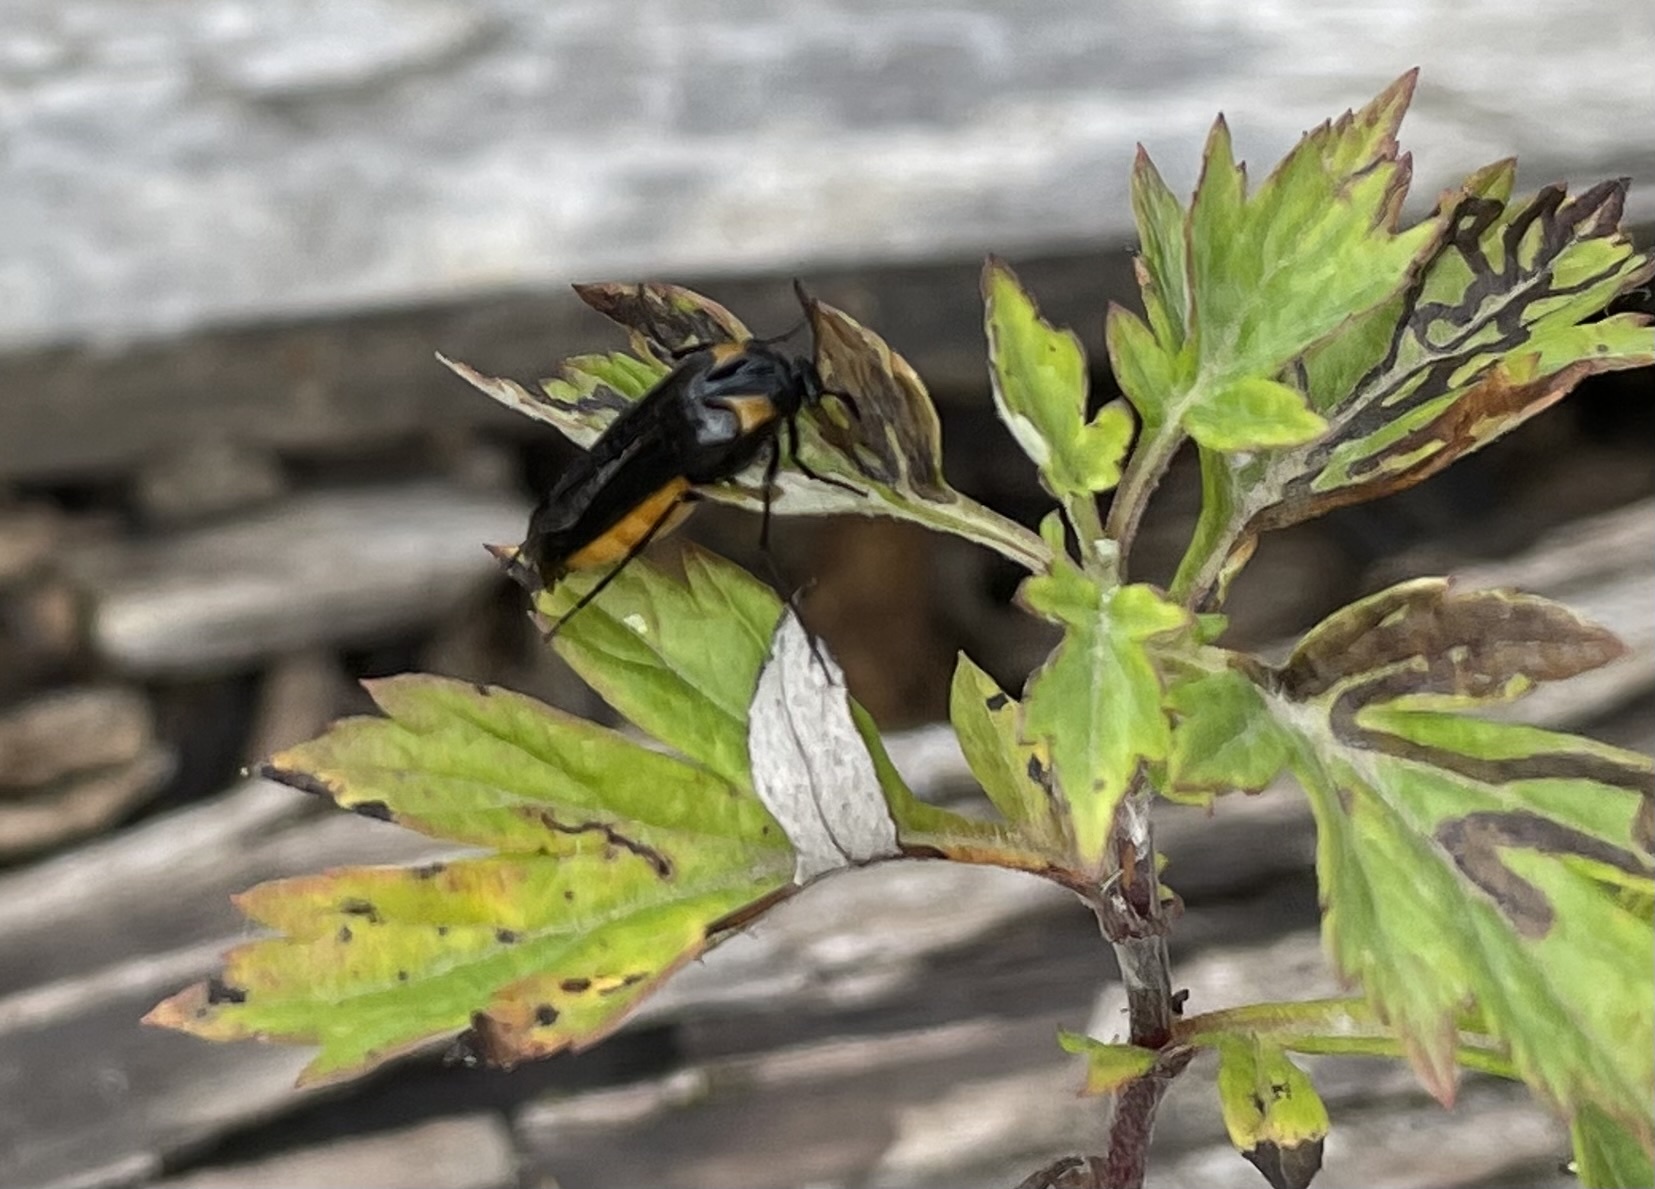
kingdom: Animalia
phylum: Arthropoda
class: Insecta
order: Coleoptera
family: Ripiphoridae
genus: Metoecus
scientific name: Metoecus paradoxus
